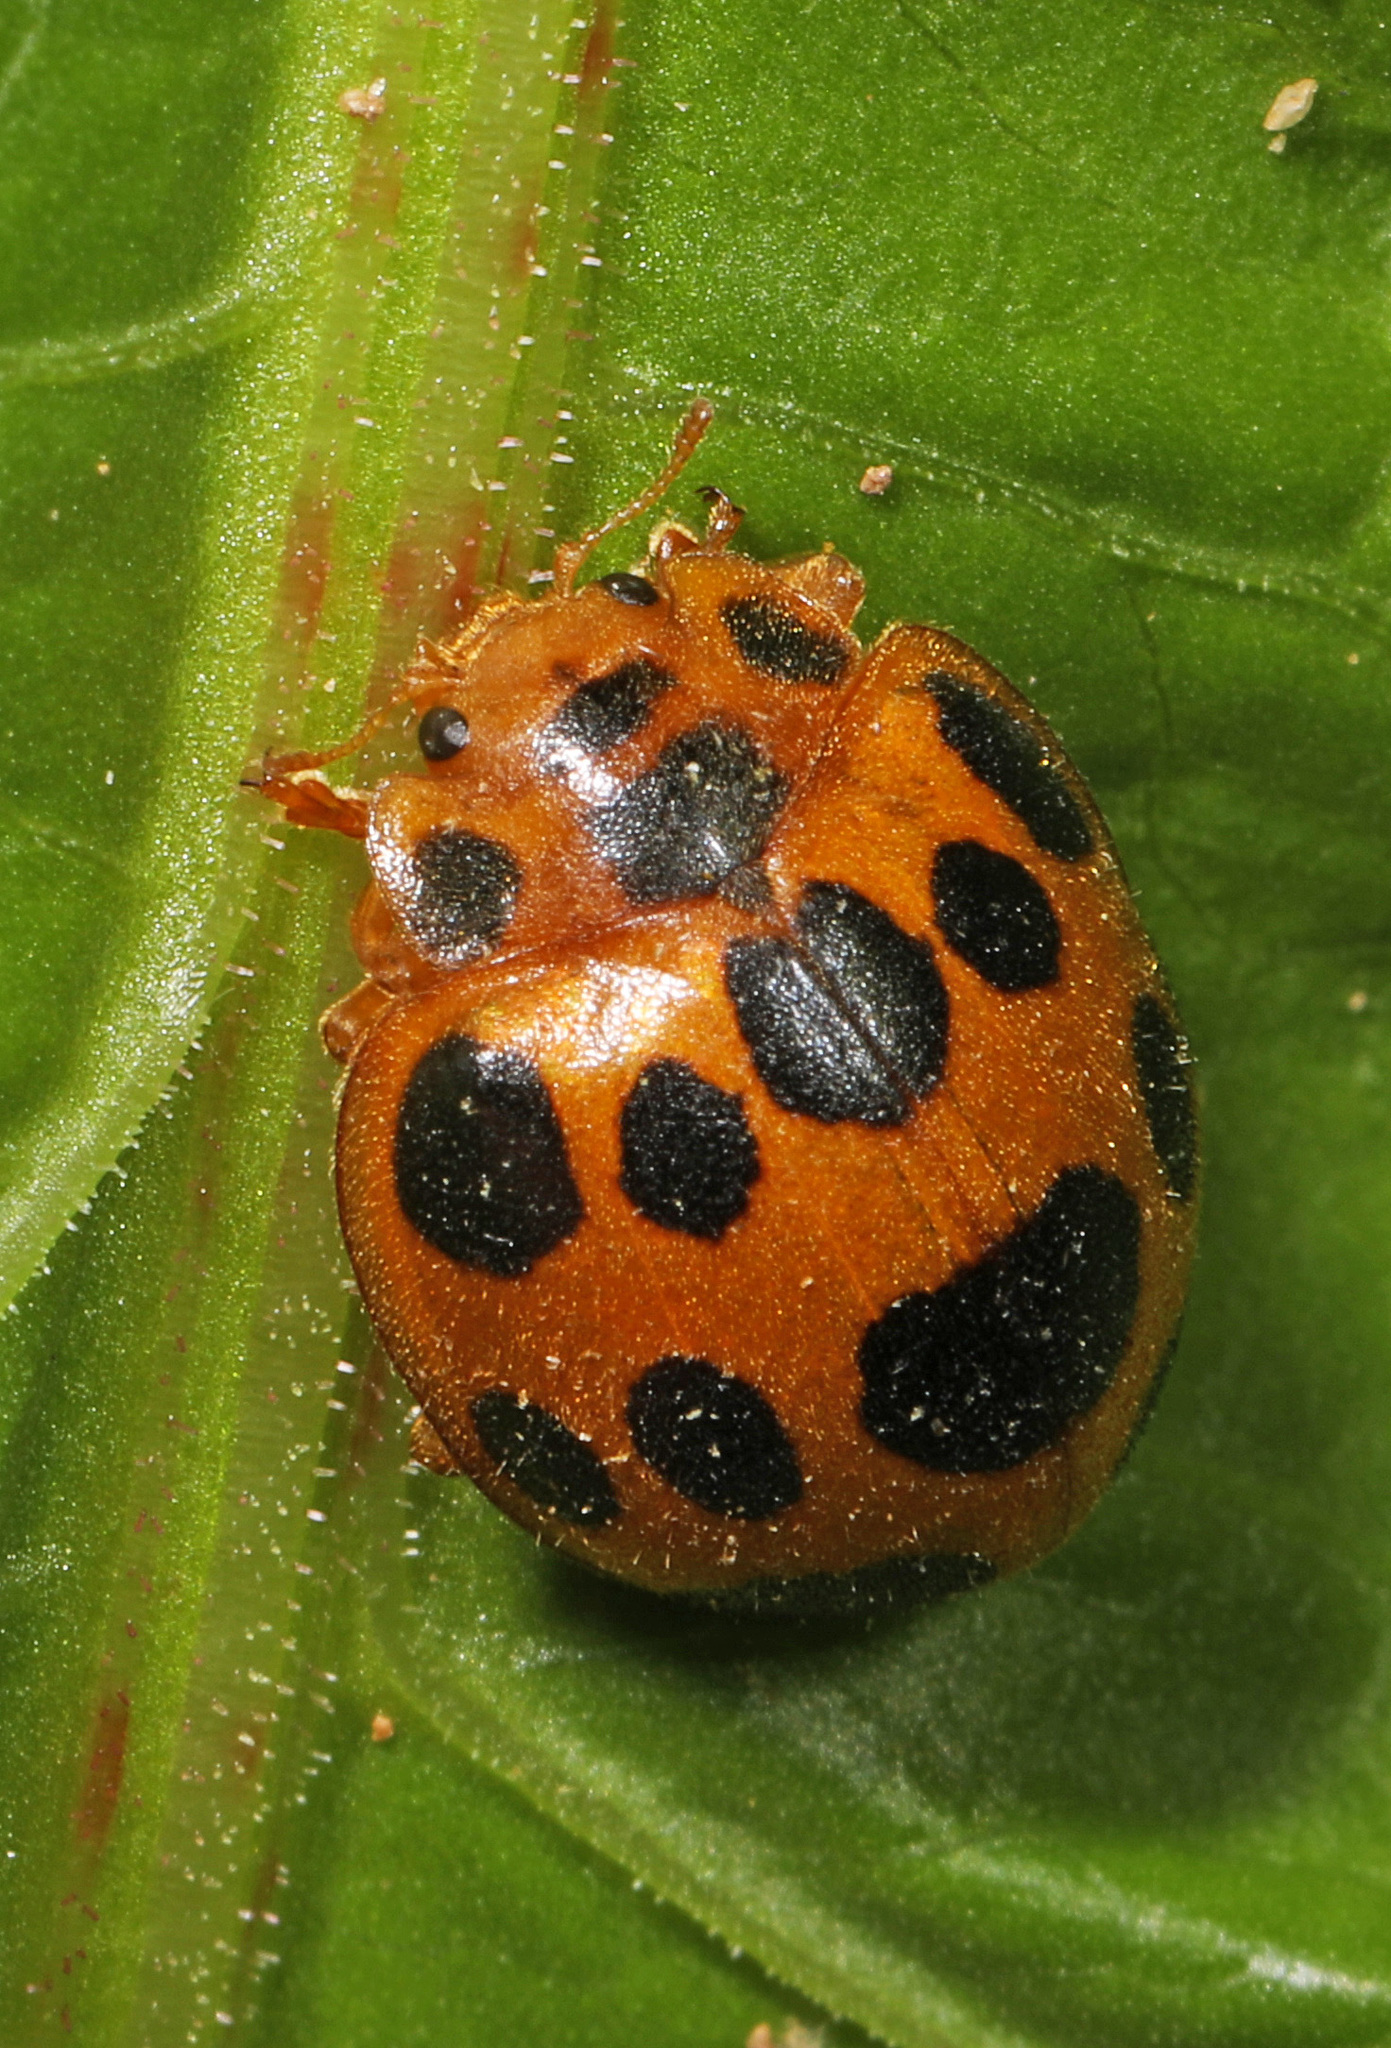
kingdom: Animalia
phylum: Arthropoda
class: Insecta
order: Coleoptera
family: Coccinellidae
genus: Epilachna
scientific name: Epilachna borealis
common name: Squash beetle
